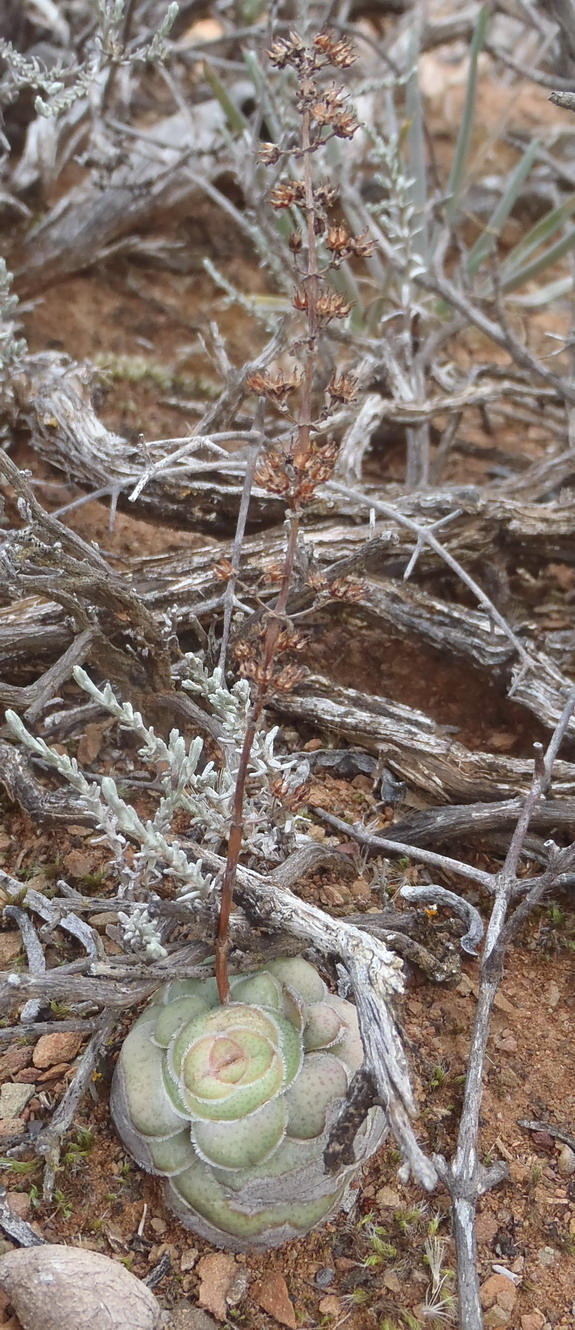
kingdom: Plantae
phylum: Tracheophyta
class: Magnoliopsida
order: Saxifragales
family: Crassulaceae
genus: Crassula
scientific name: Crassula hemisphaerica
